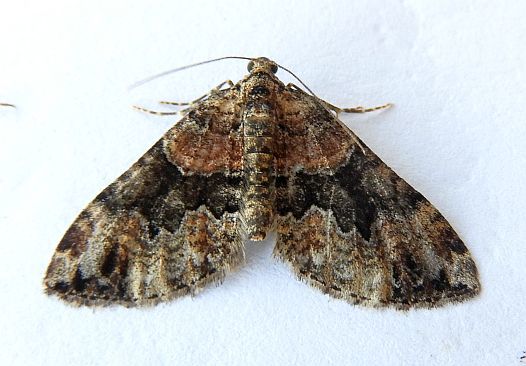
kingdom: Animalia
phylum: Arthropoda
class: Insecta
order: Lepidoptera
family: Geometridae
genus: Perizoma
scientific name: Perizoma actuata
